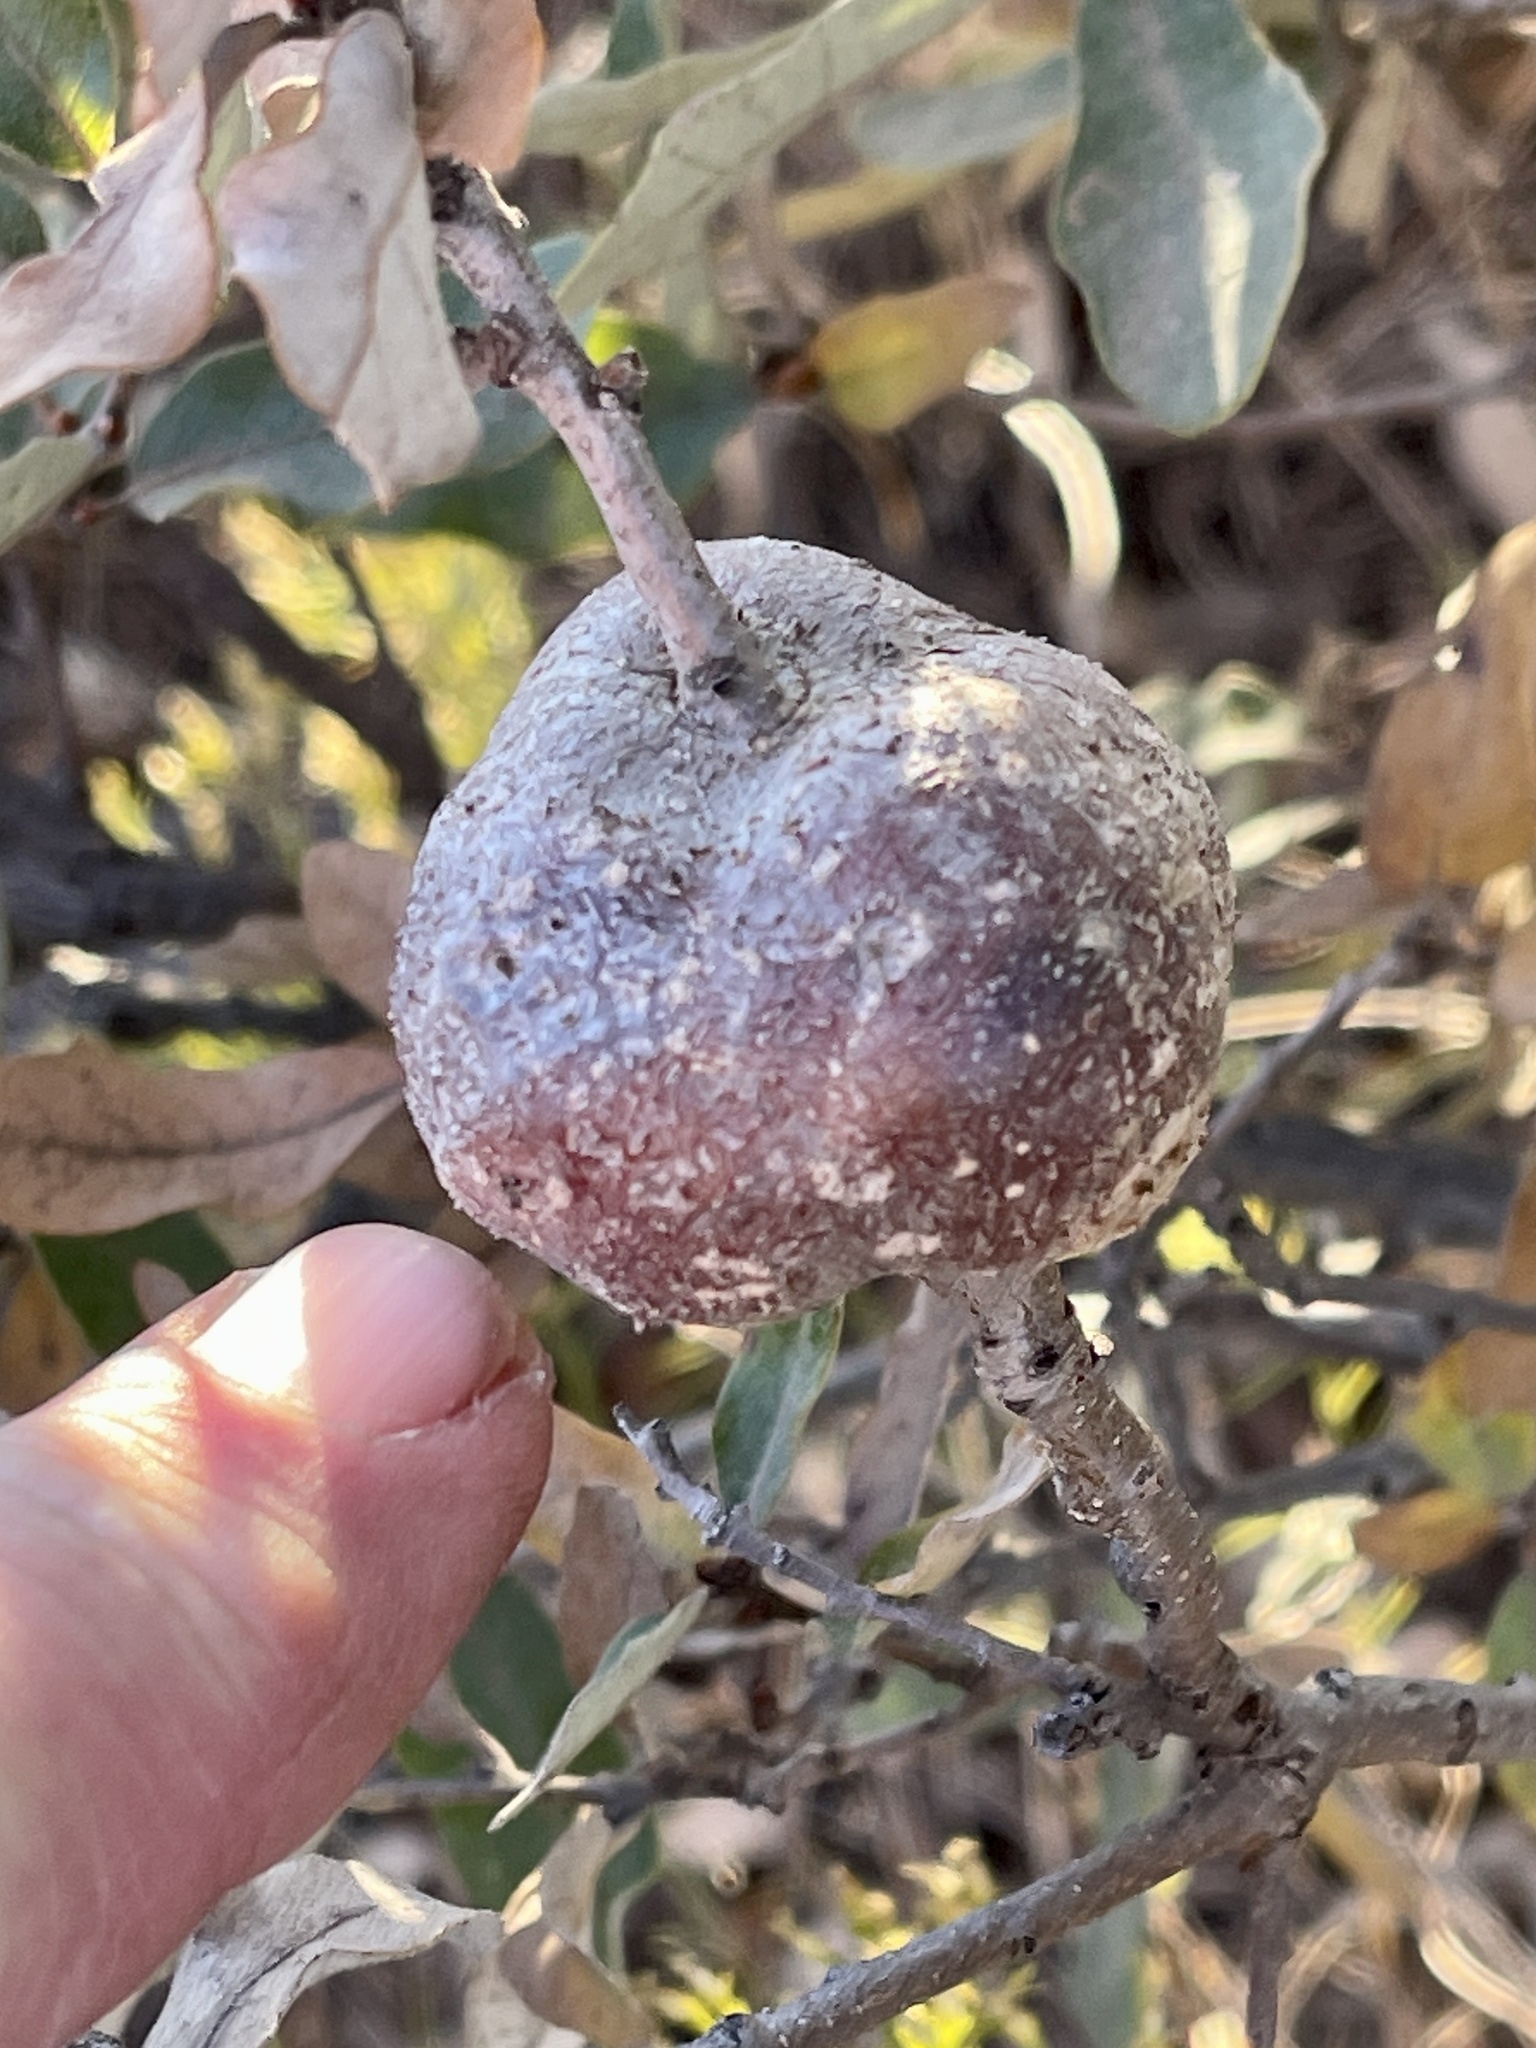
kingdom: Animalia
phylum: Arthropoda
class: Insecta
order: Hymenoptera
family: Cynipidae
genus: Callirhytis
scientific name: Callirhytis
